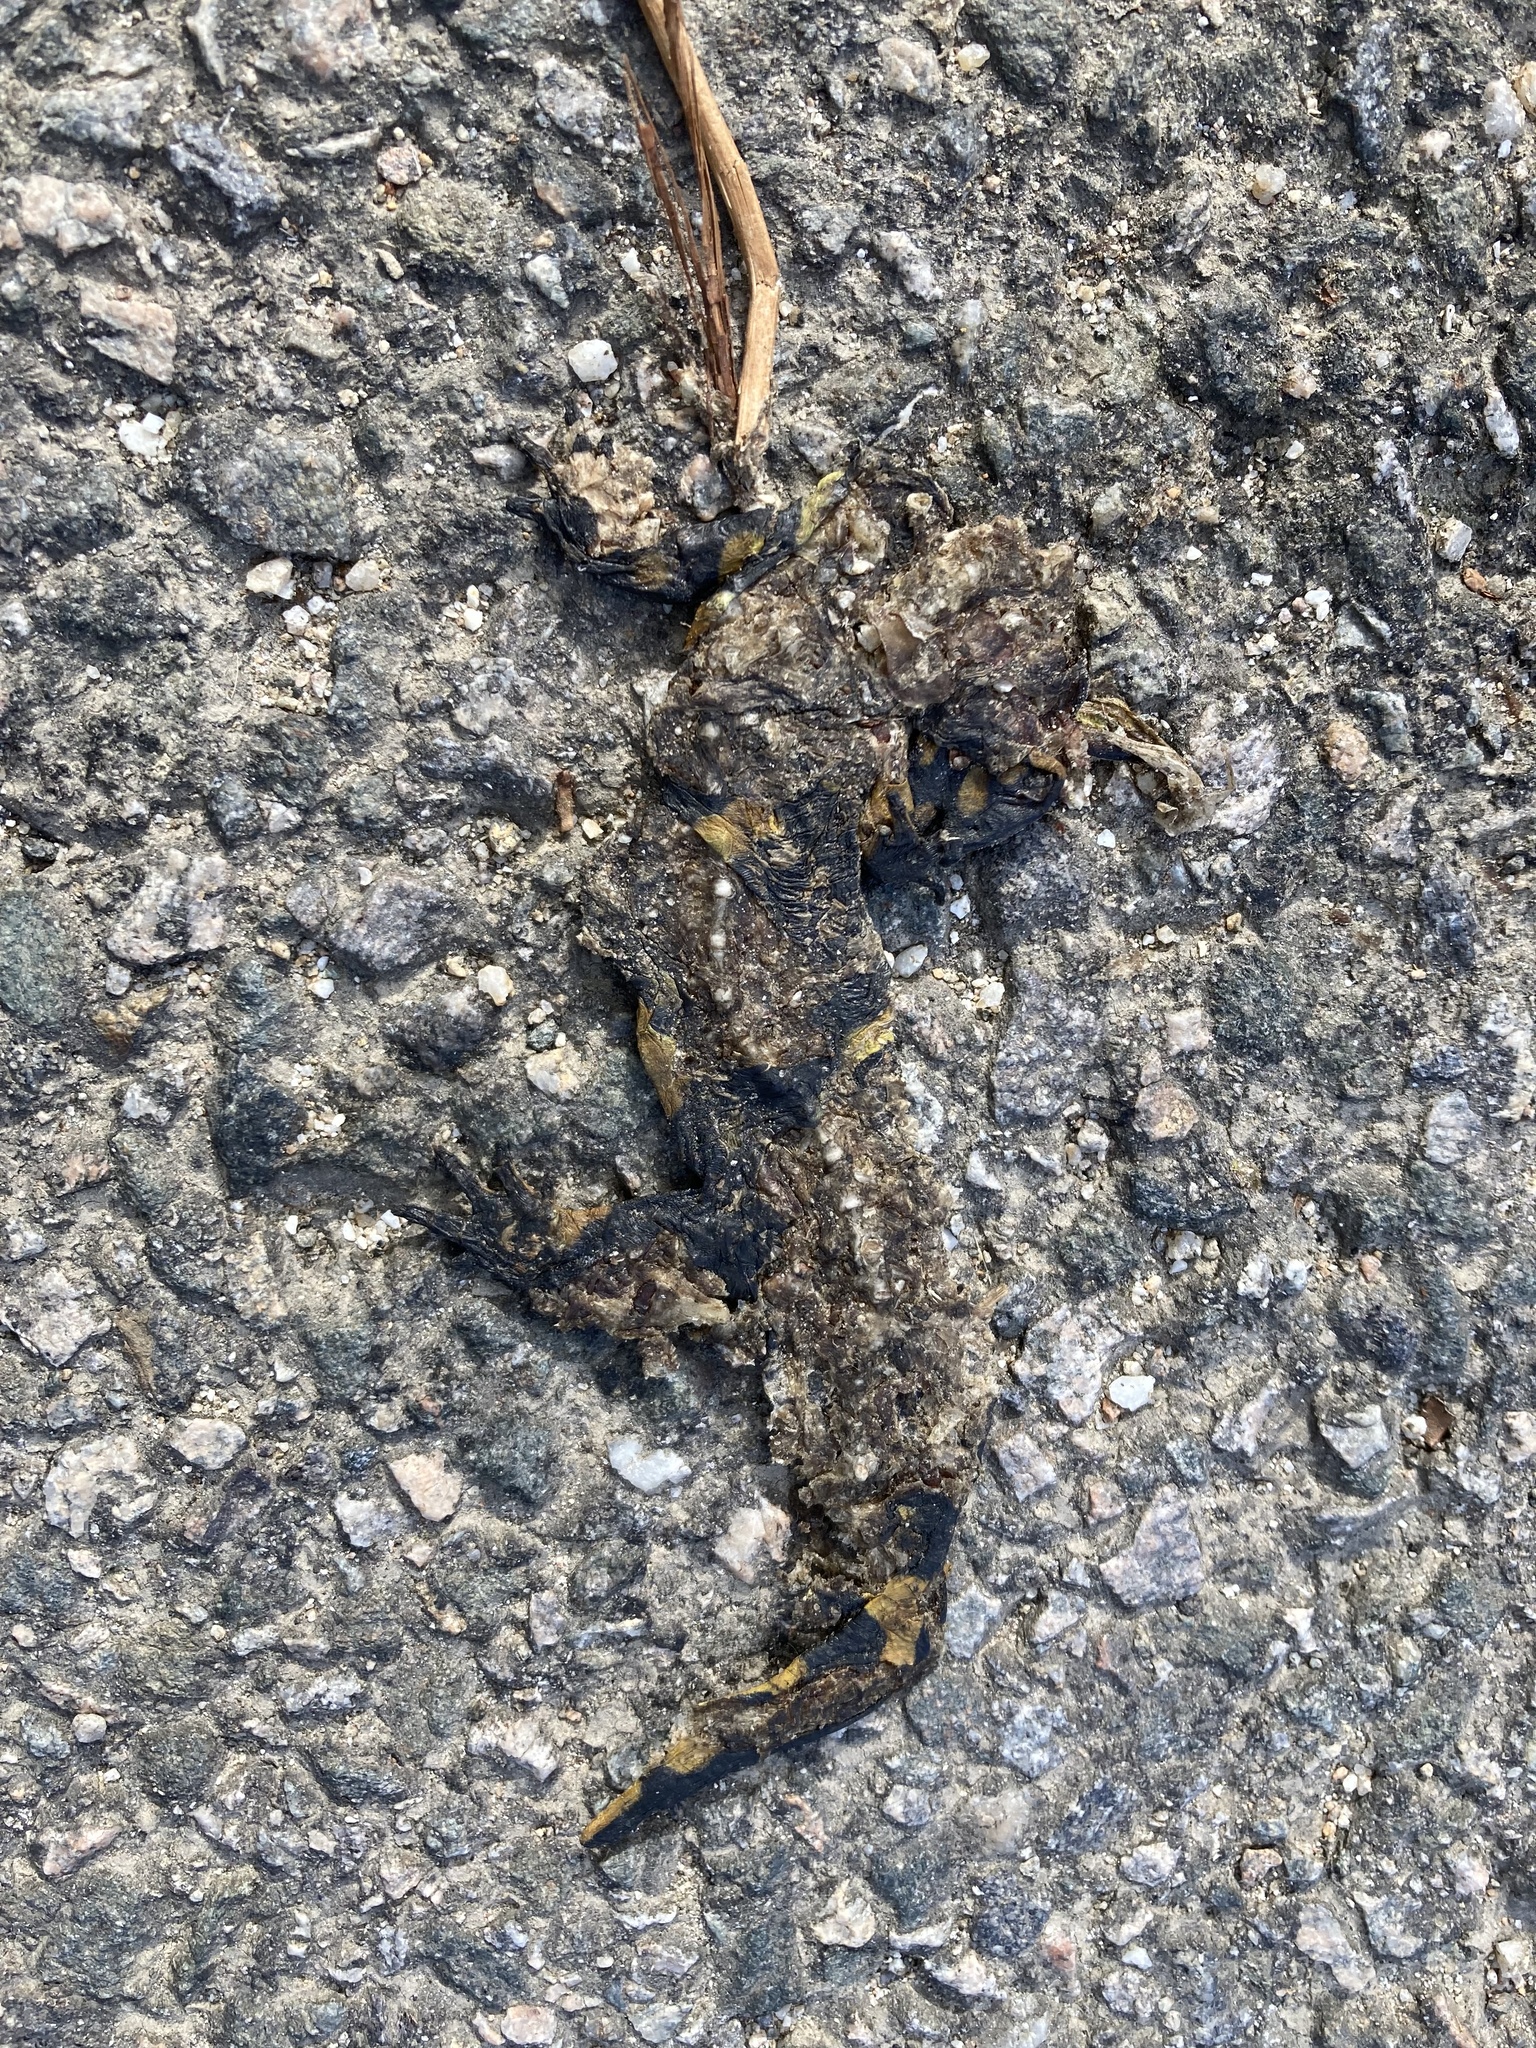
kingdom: Animalia
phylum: Chordata
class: Amphibia
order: Caudata
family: Salamandridae
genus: Salamandra
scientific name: Salamandra salamandra
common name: Fire salamander
